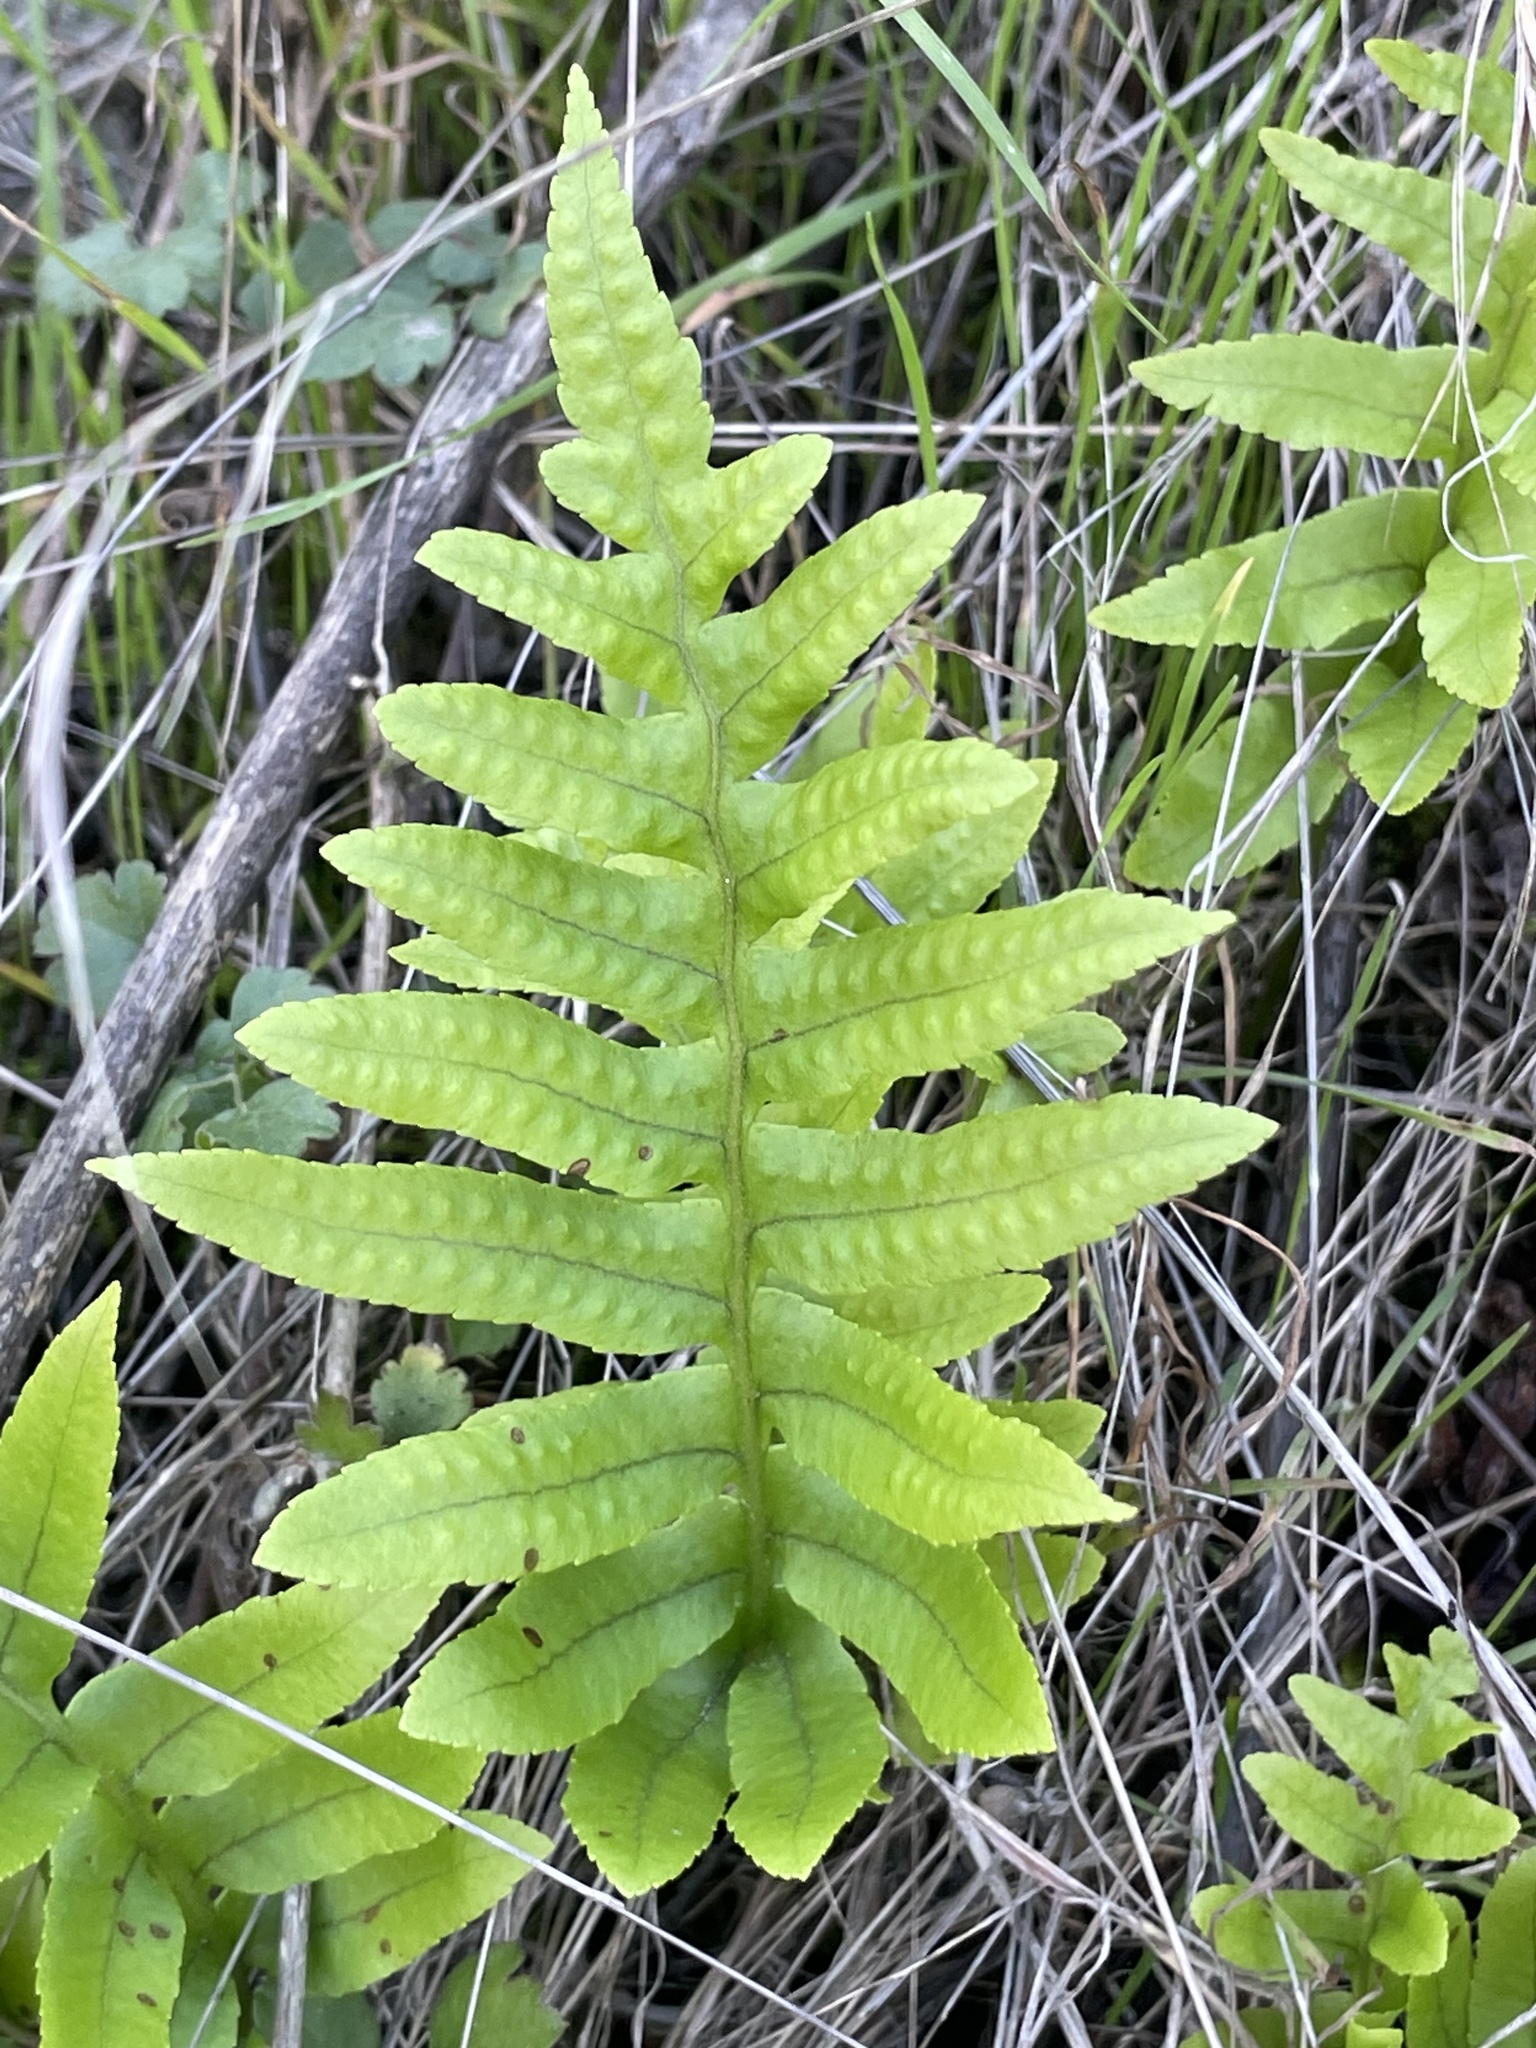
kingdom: Plantae
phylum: Tracheophyta
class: Polypodiopsida
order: Polypodiales
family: Polypodiaceae
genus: Polypodium
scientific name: Polypodium californicum
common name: California polypody
